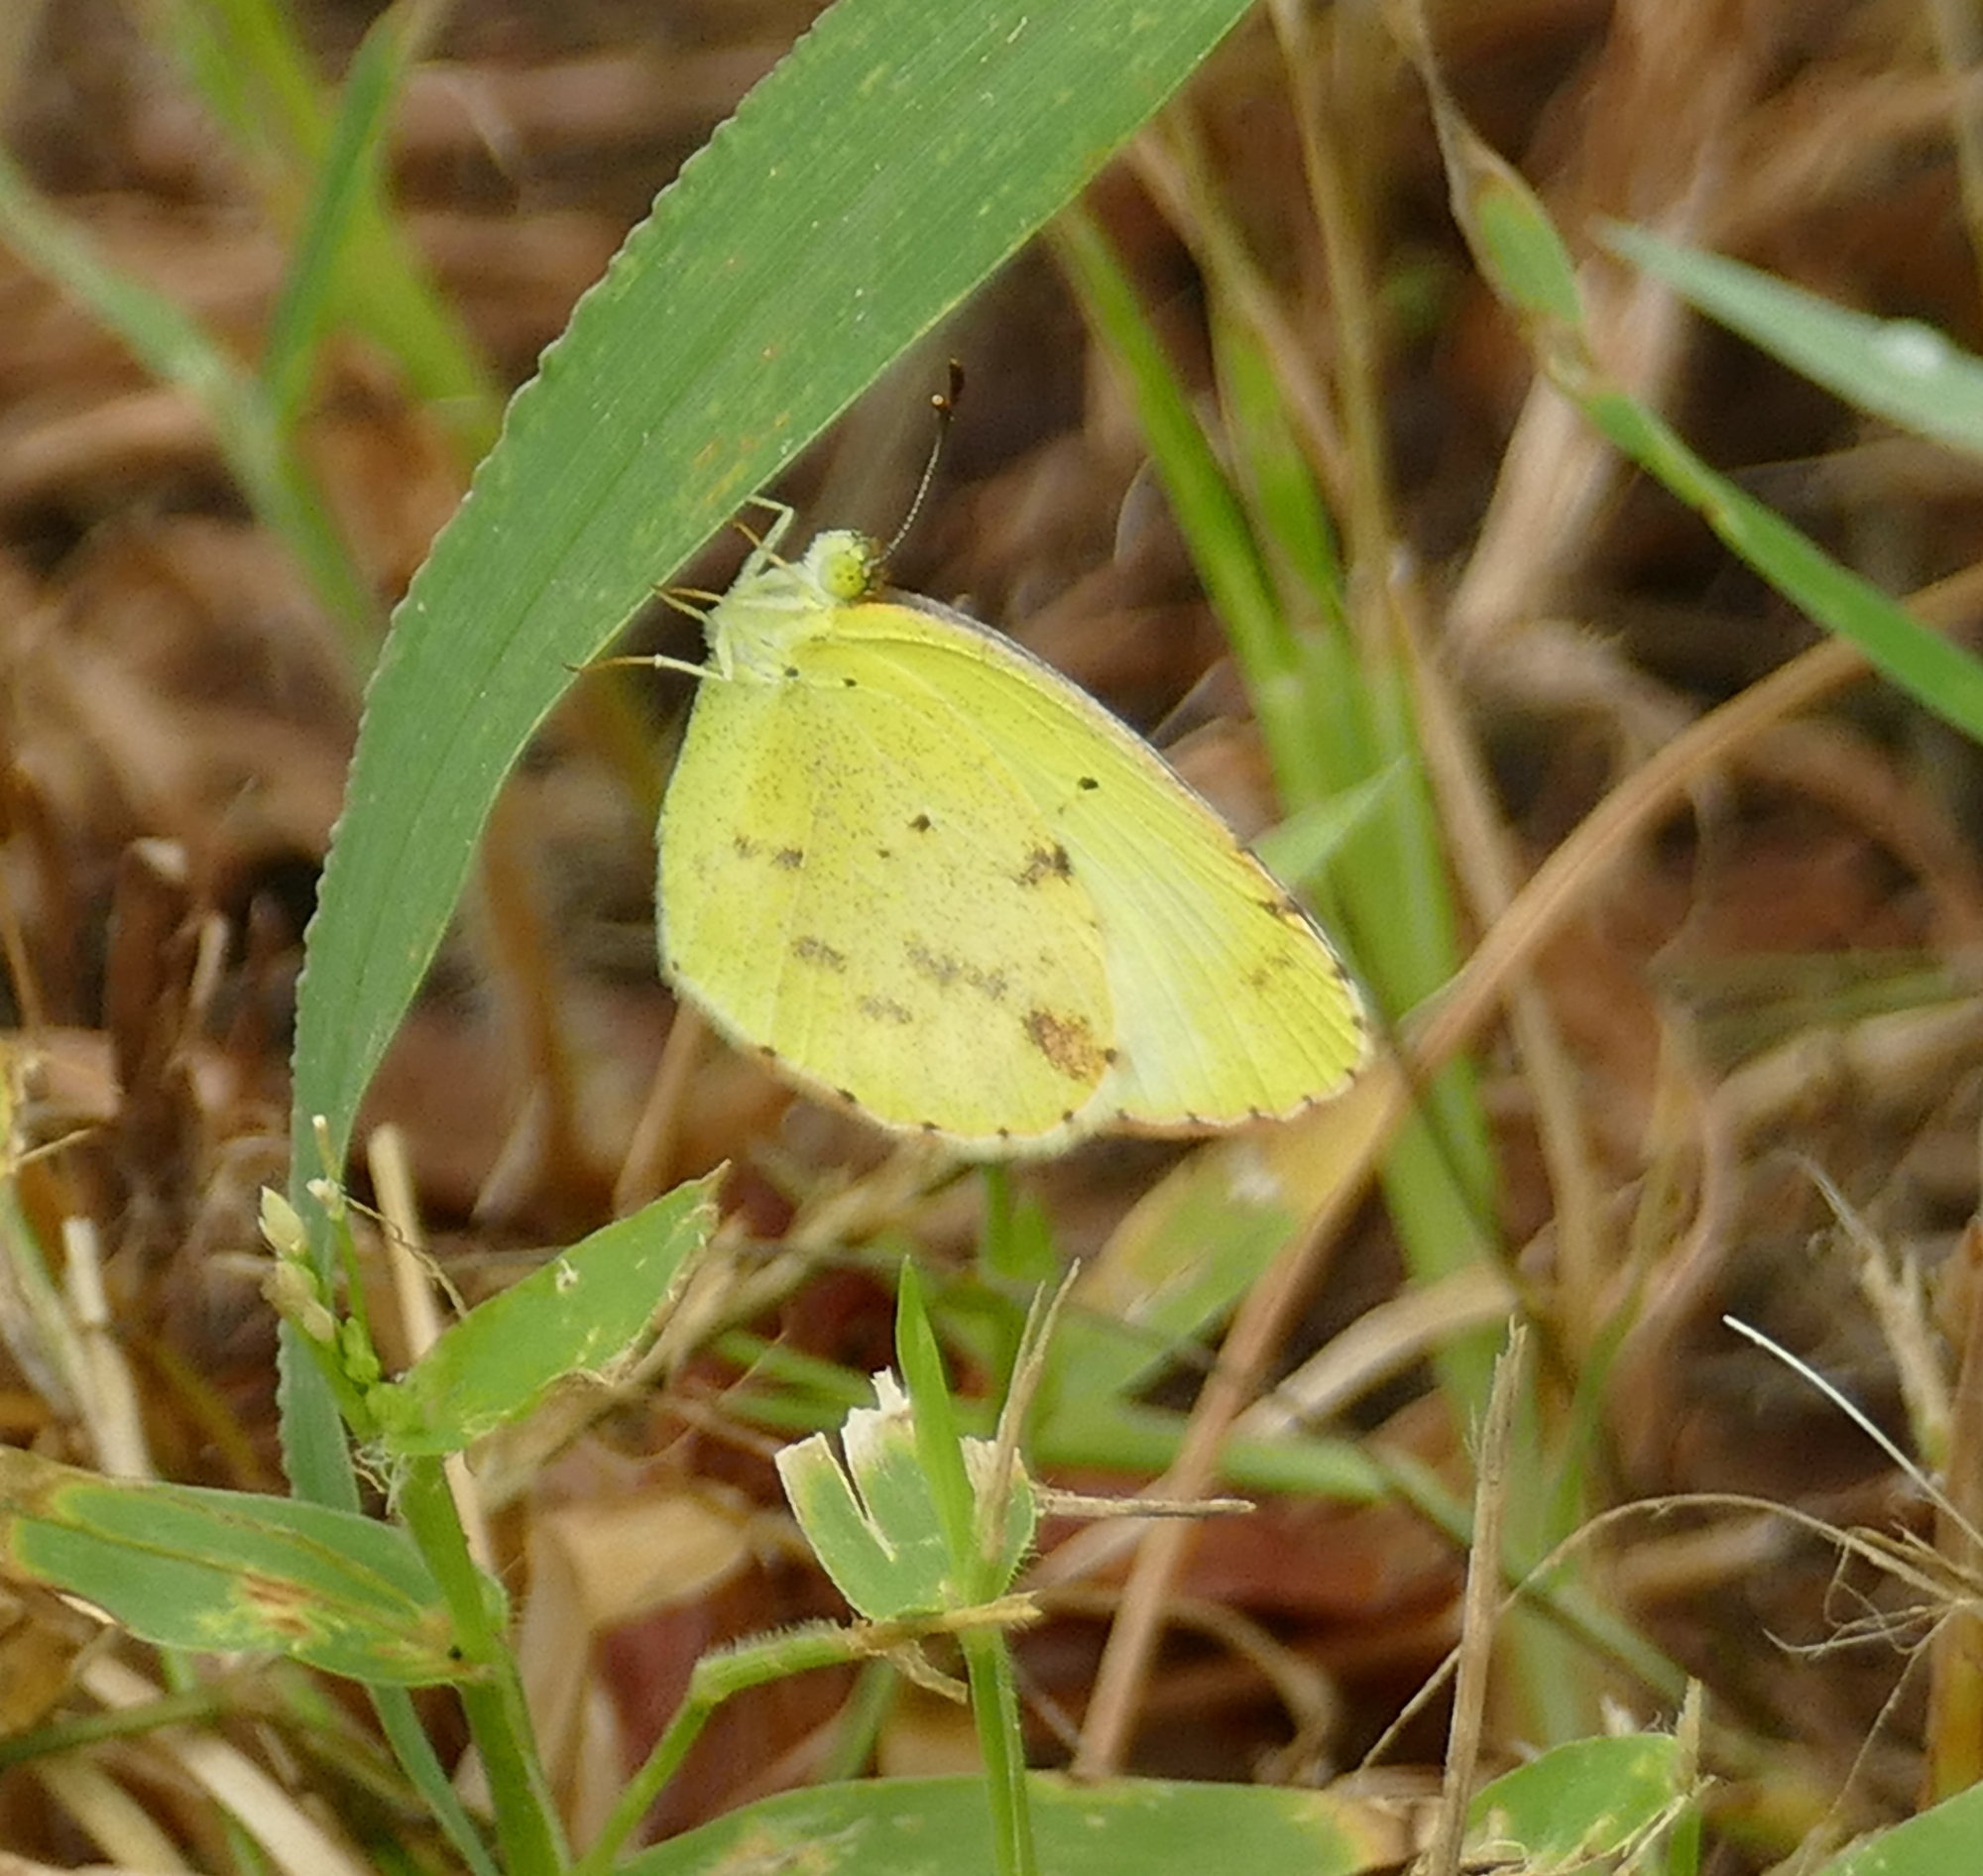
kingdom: Animalia
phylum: Arthropoda
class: Insecta
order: Lepidoptera
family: Pieridae
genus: Pyrisitia
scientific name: Pyrisitia lisa
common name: Little yellow
